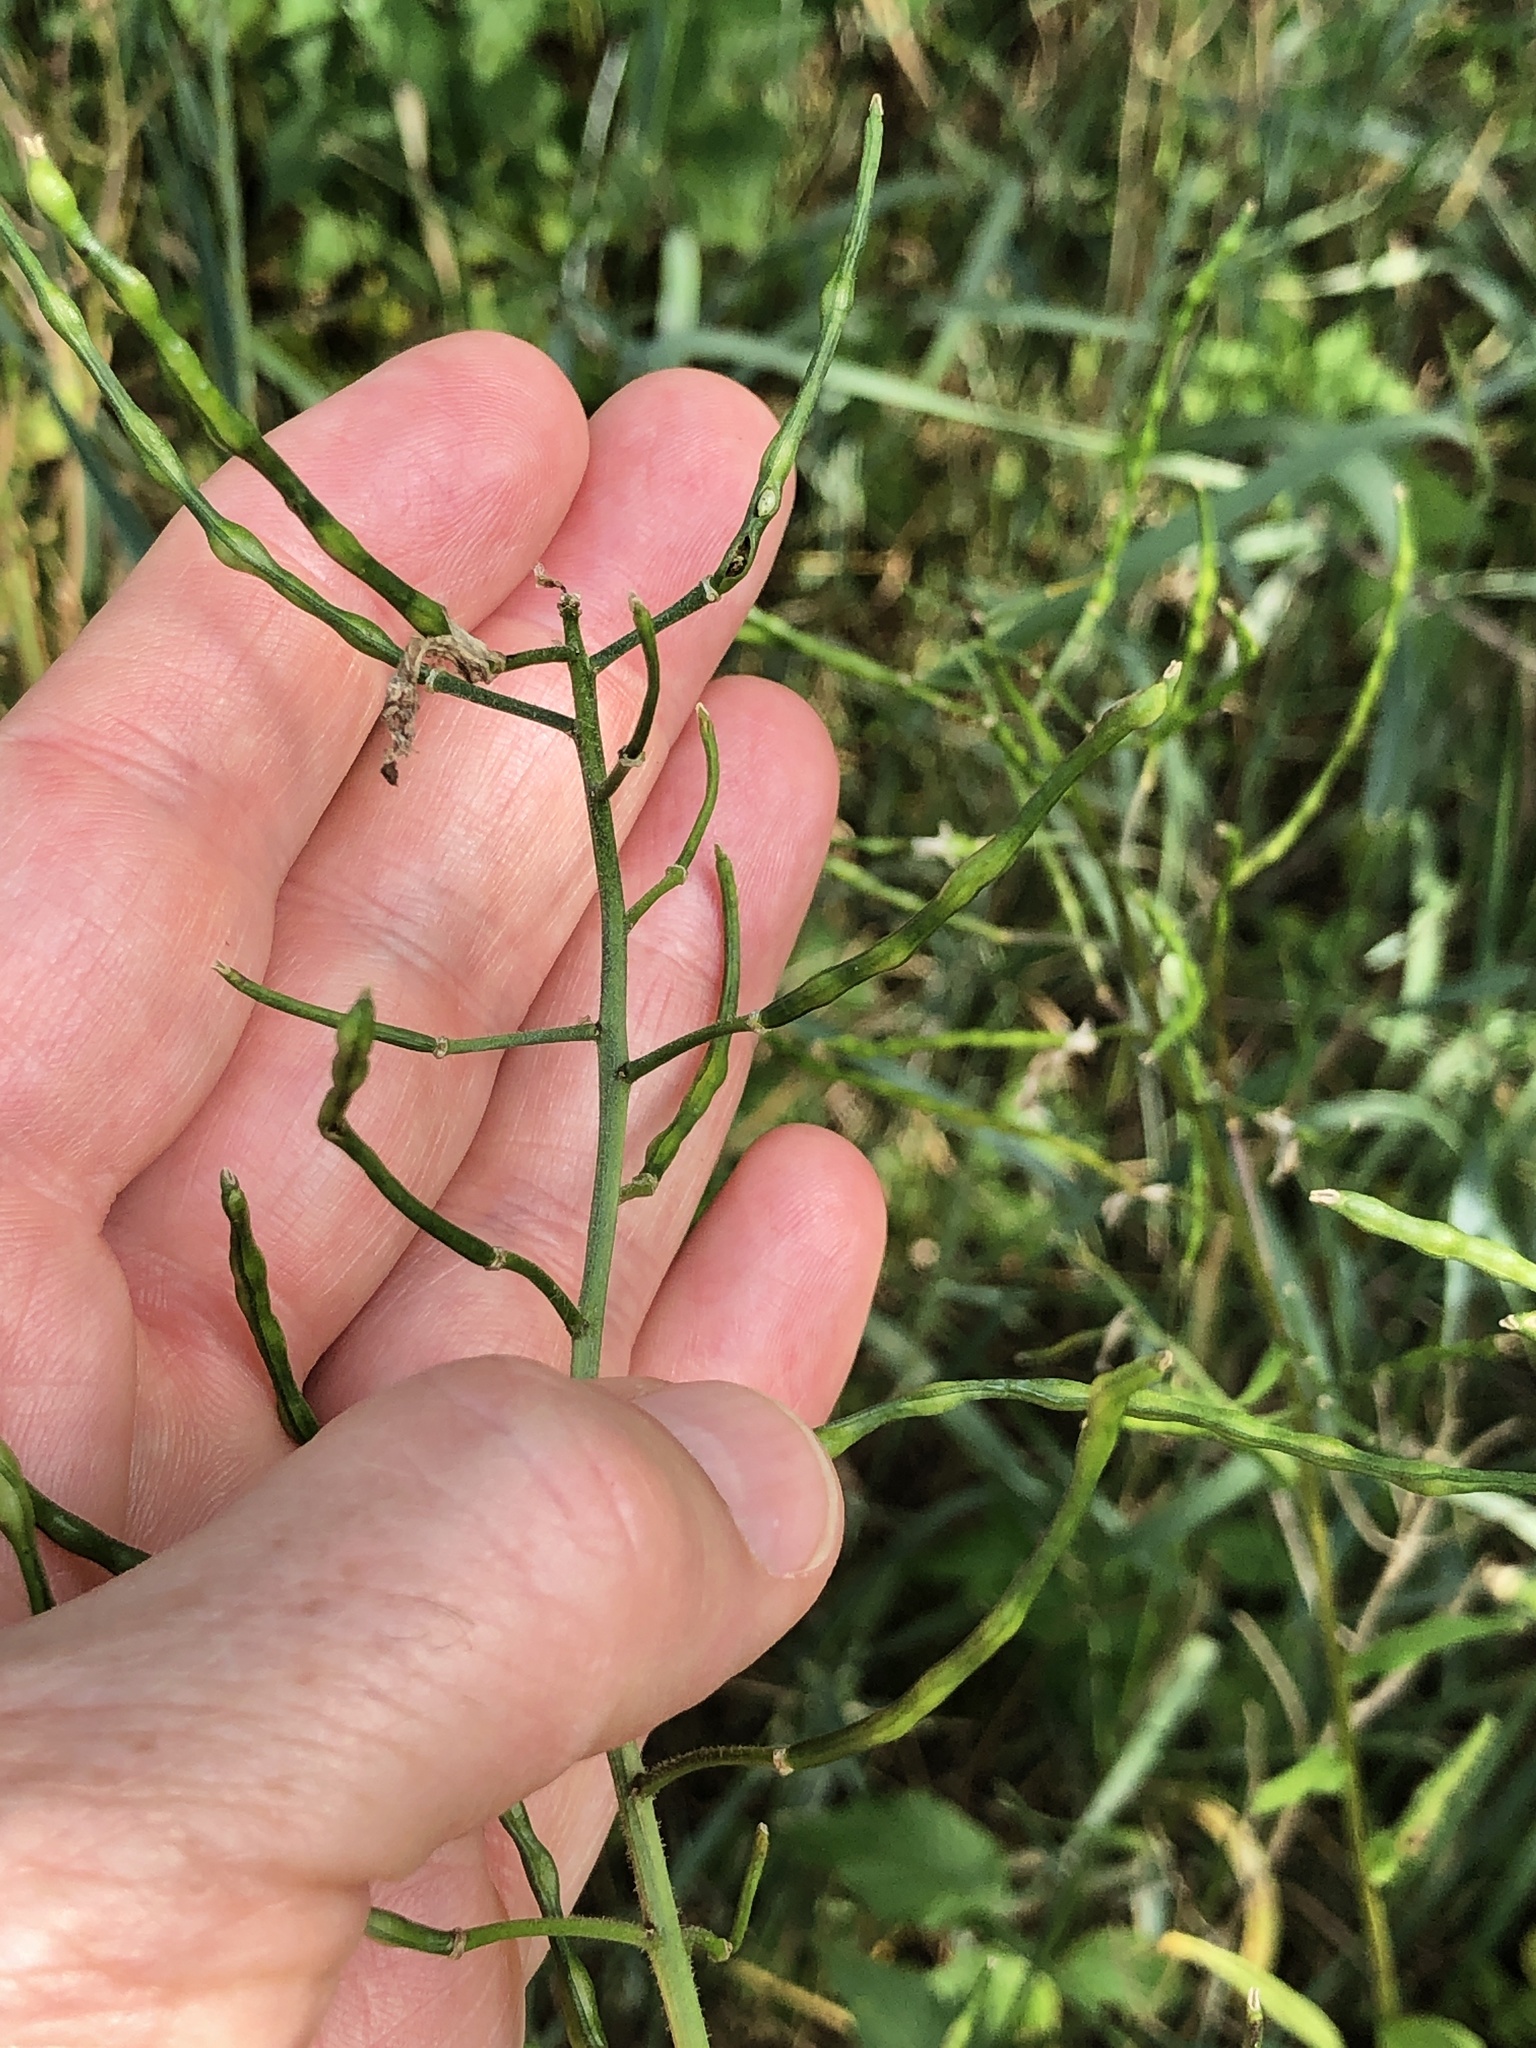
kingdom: Plantae
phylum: Tracheophyta
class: Magnoliopsida
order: Brassicales
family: Brassicaceae
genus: Hesperis
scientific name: Hesperis matronalis
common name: Dame's-violet
